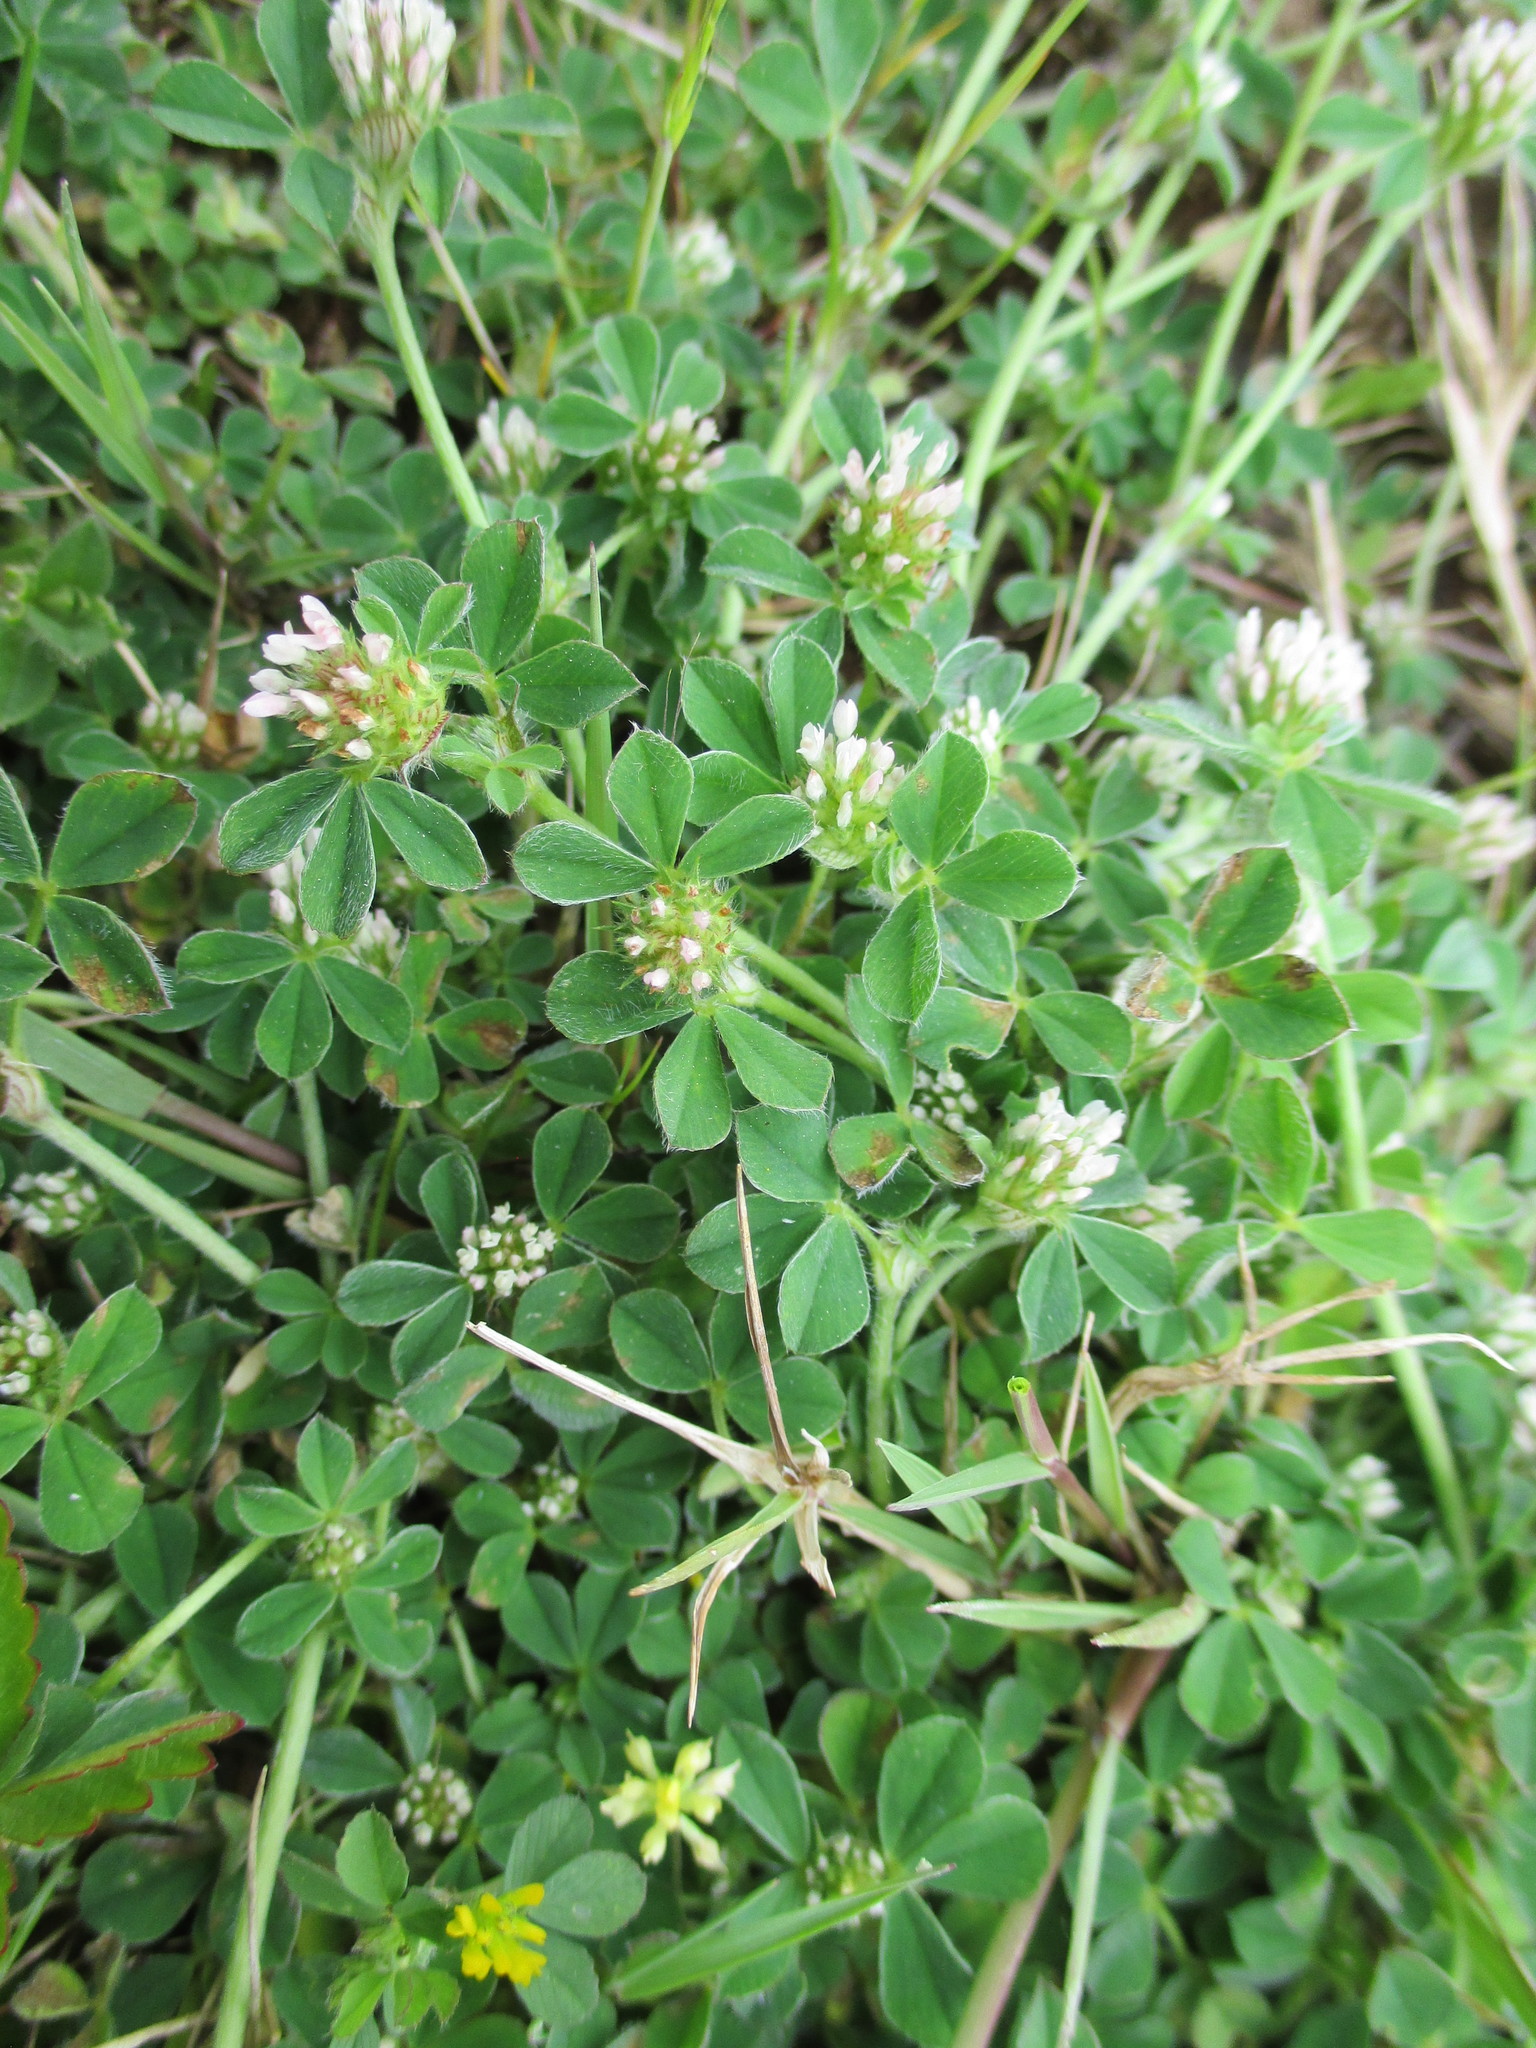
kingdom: Plantae
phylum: Tracheophyta
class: Magnoliopsida
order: Fabales
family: Fabaceae
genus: Trifolium
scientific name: Trifolium scabrum
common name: Rough clover
